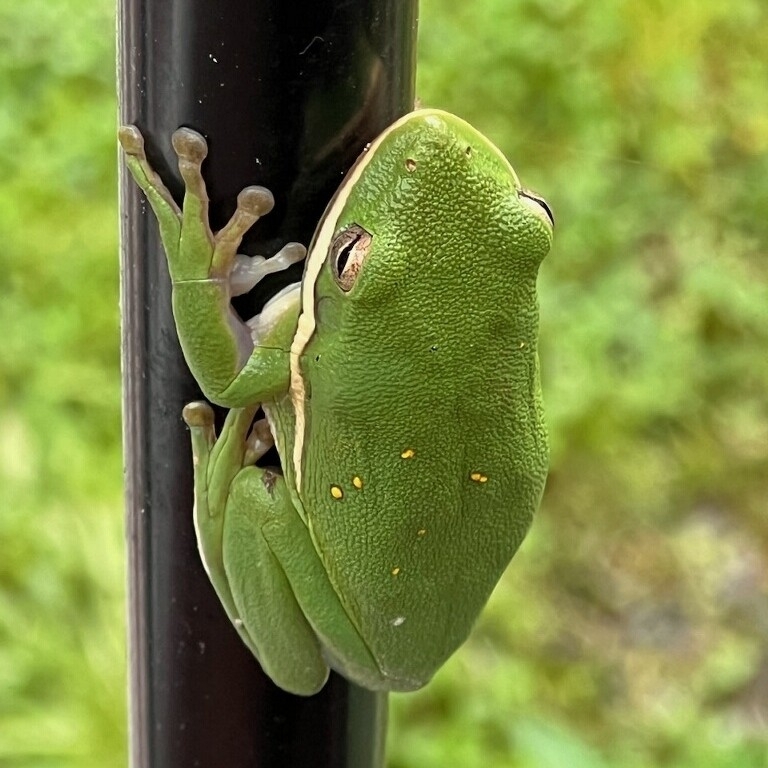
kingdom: Animalia
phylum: Chordata
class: Amphibia
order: Anura
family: Hylidae
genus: Dryophytes
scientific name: Dryophytes cinereus
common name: Green treefrog
